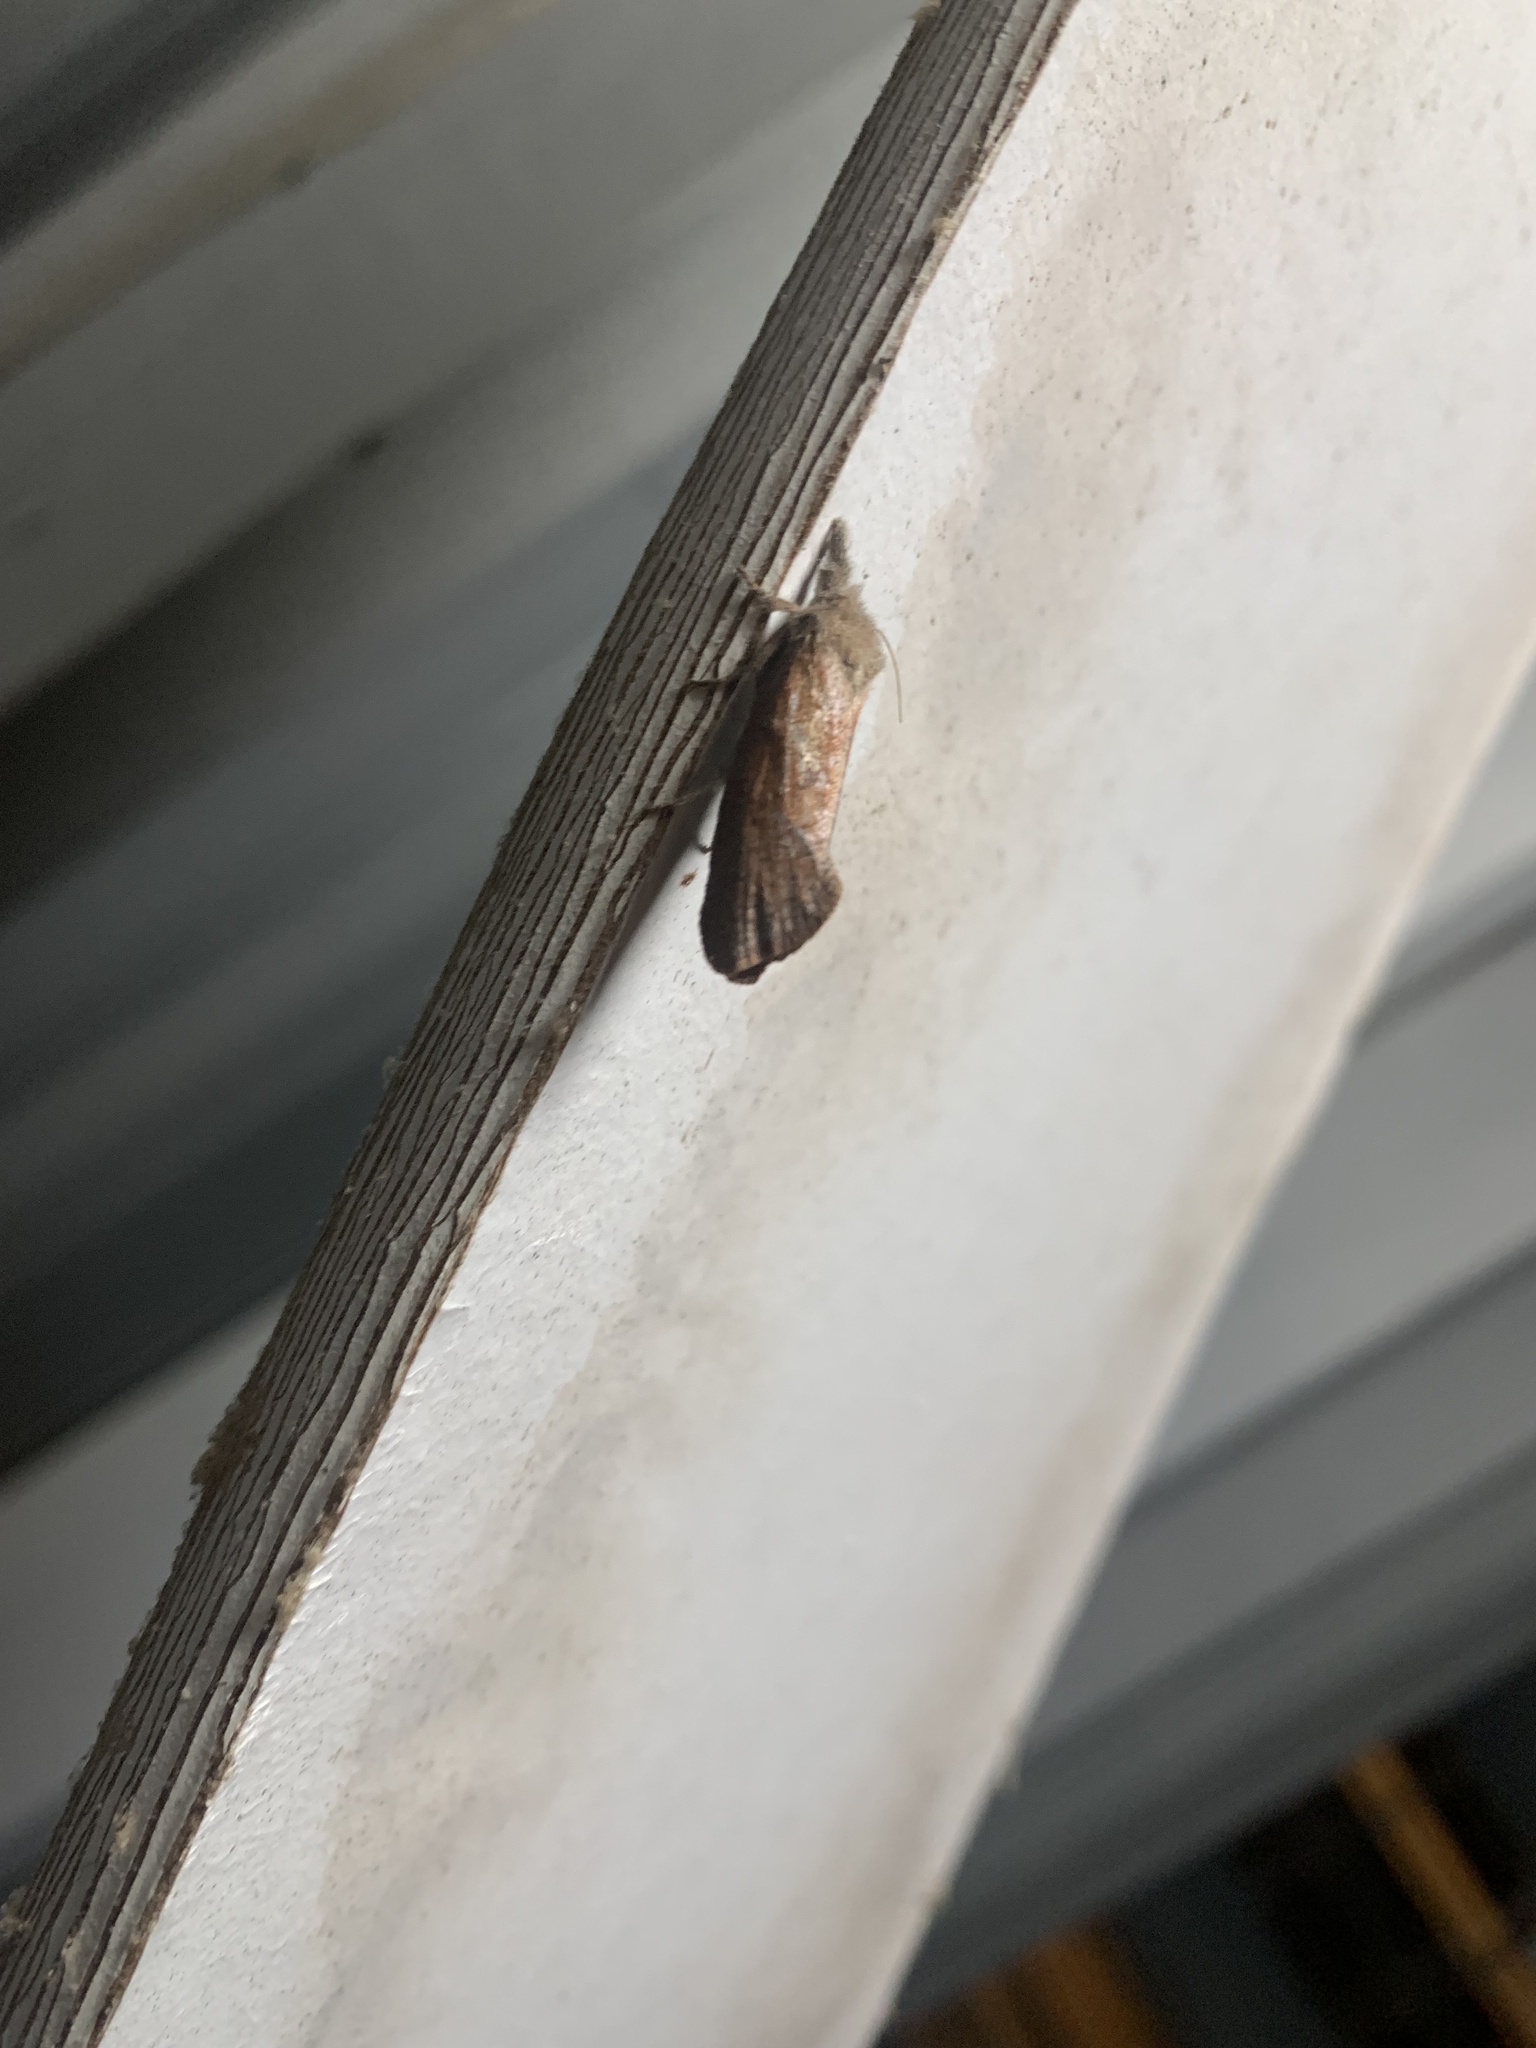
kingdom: Animalia
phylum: Arthropoda
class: Insecta
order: Lepidoptera
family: Tineidae
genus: Acrolophus
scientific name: Acrolophus plumifrontella
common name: Eastern grass tubeworm moth
